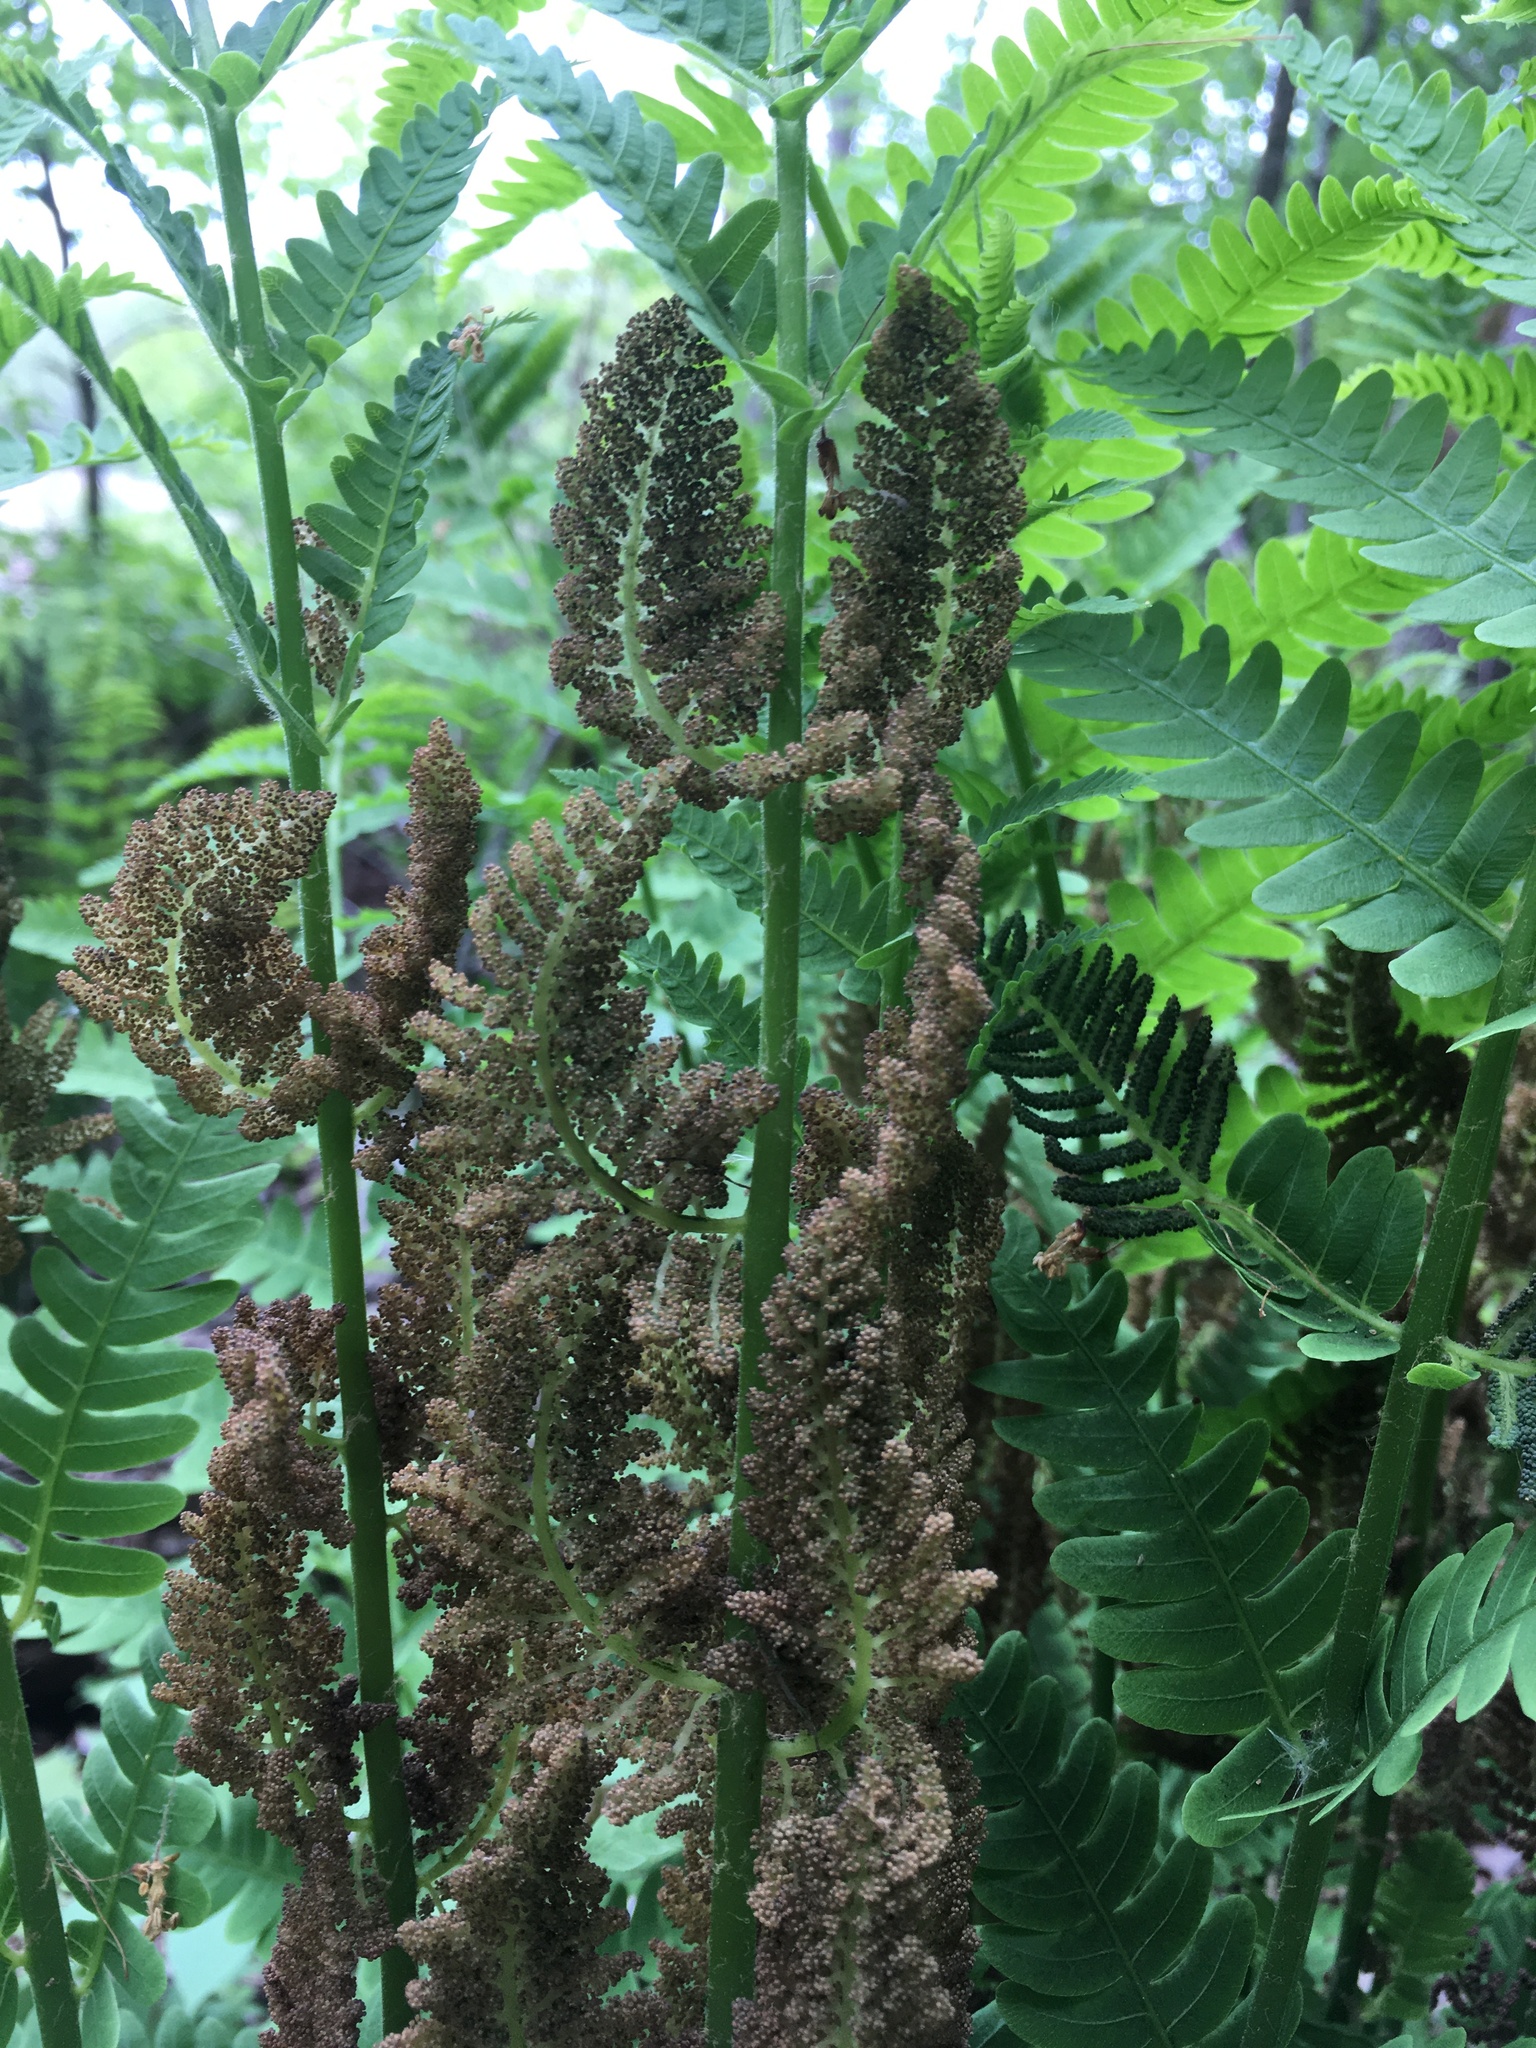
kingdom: Plantae
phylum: Tracheophyta
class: Polypodiopsida
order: Osmundales
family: Osmundaceae
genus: Claytosmunda
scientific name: Claytosmunda claytoniana
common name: Clayton's fern
